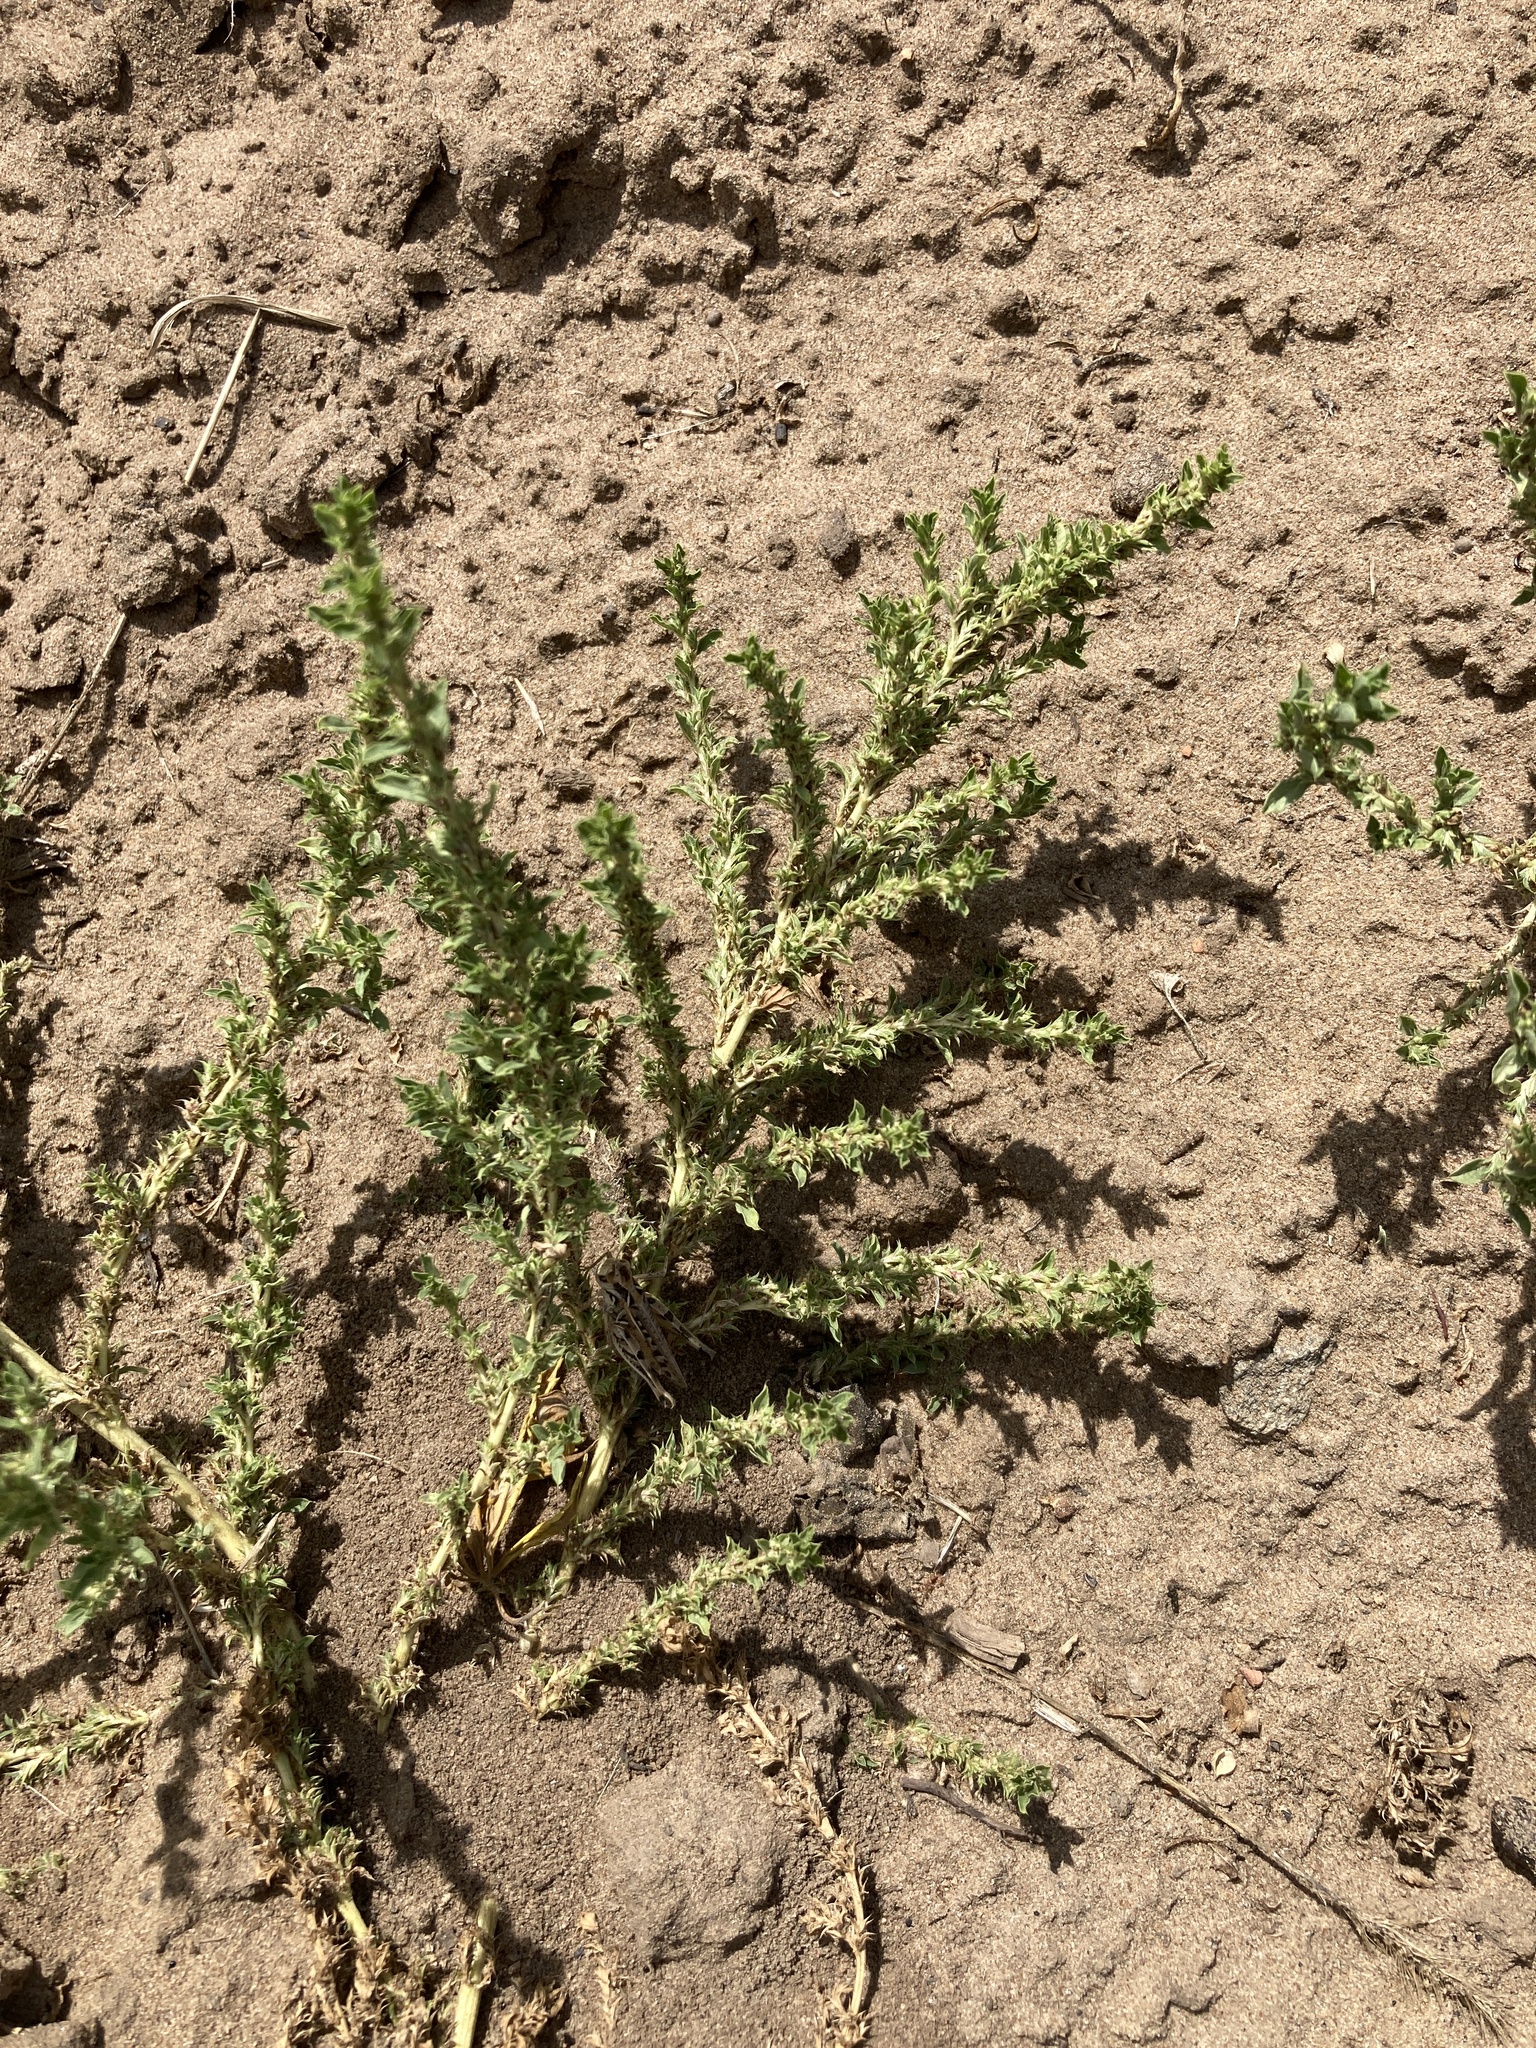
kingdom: Plantae
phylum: Tracheophyta
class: Magnoliopsida
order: Caryophyllales
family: Amaranthaceae
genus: Amaranthus
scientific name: Amaranthus albus
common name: White pigweed
